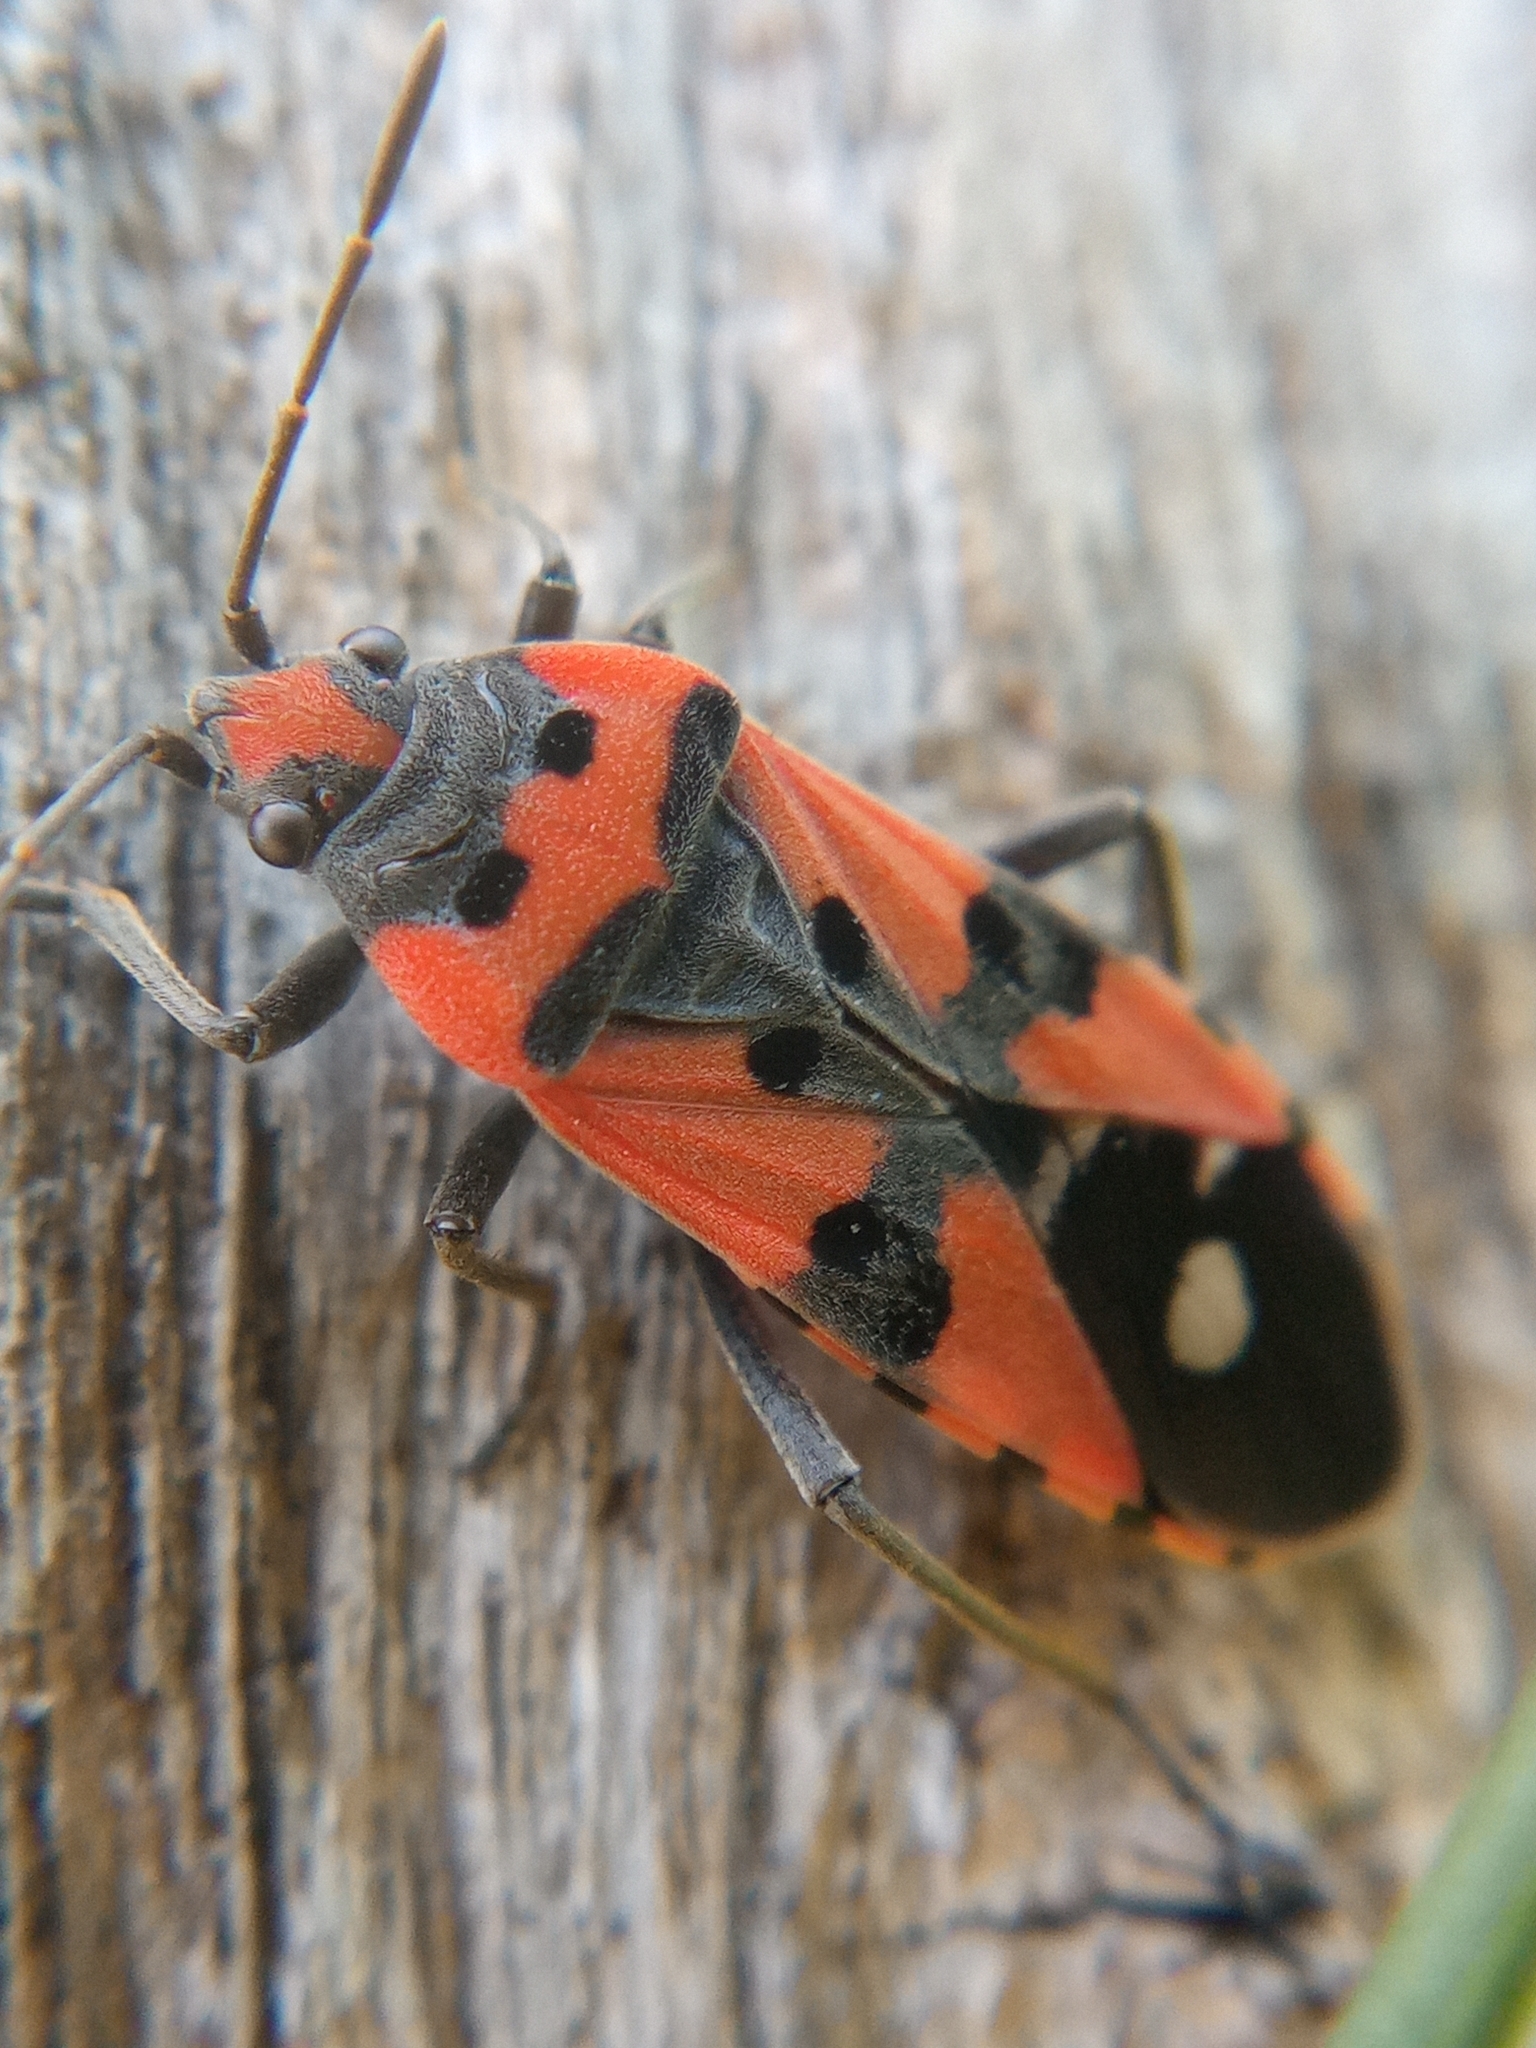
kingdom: Animalia
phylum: Arthropoda
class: Insecta
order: Hemiptera
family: Lygaeidae
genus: Lygaeus
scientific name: Lygaeus equestris
